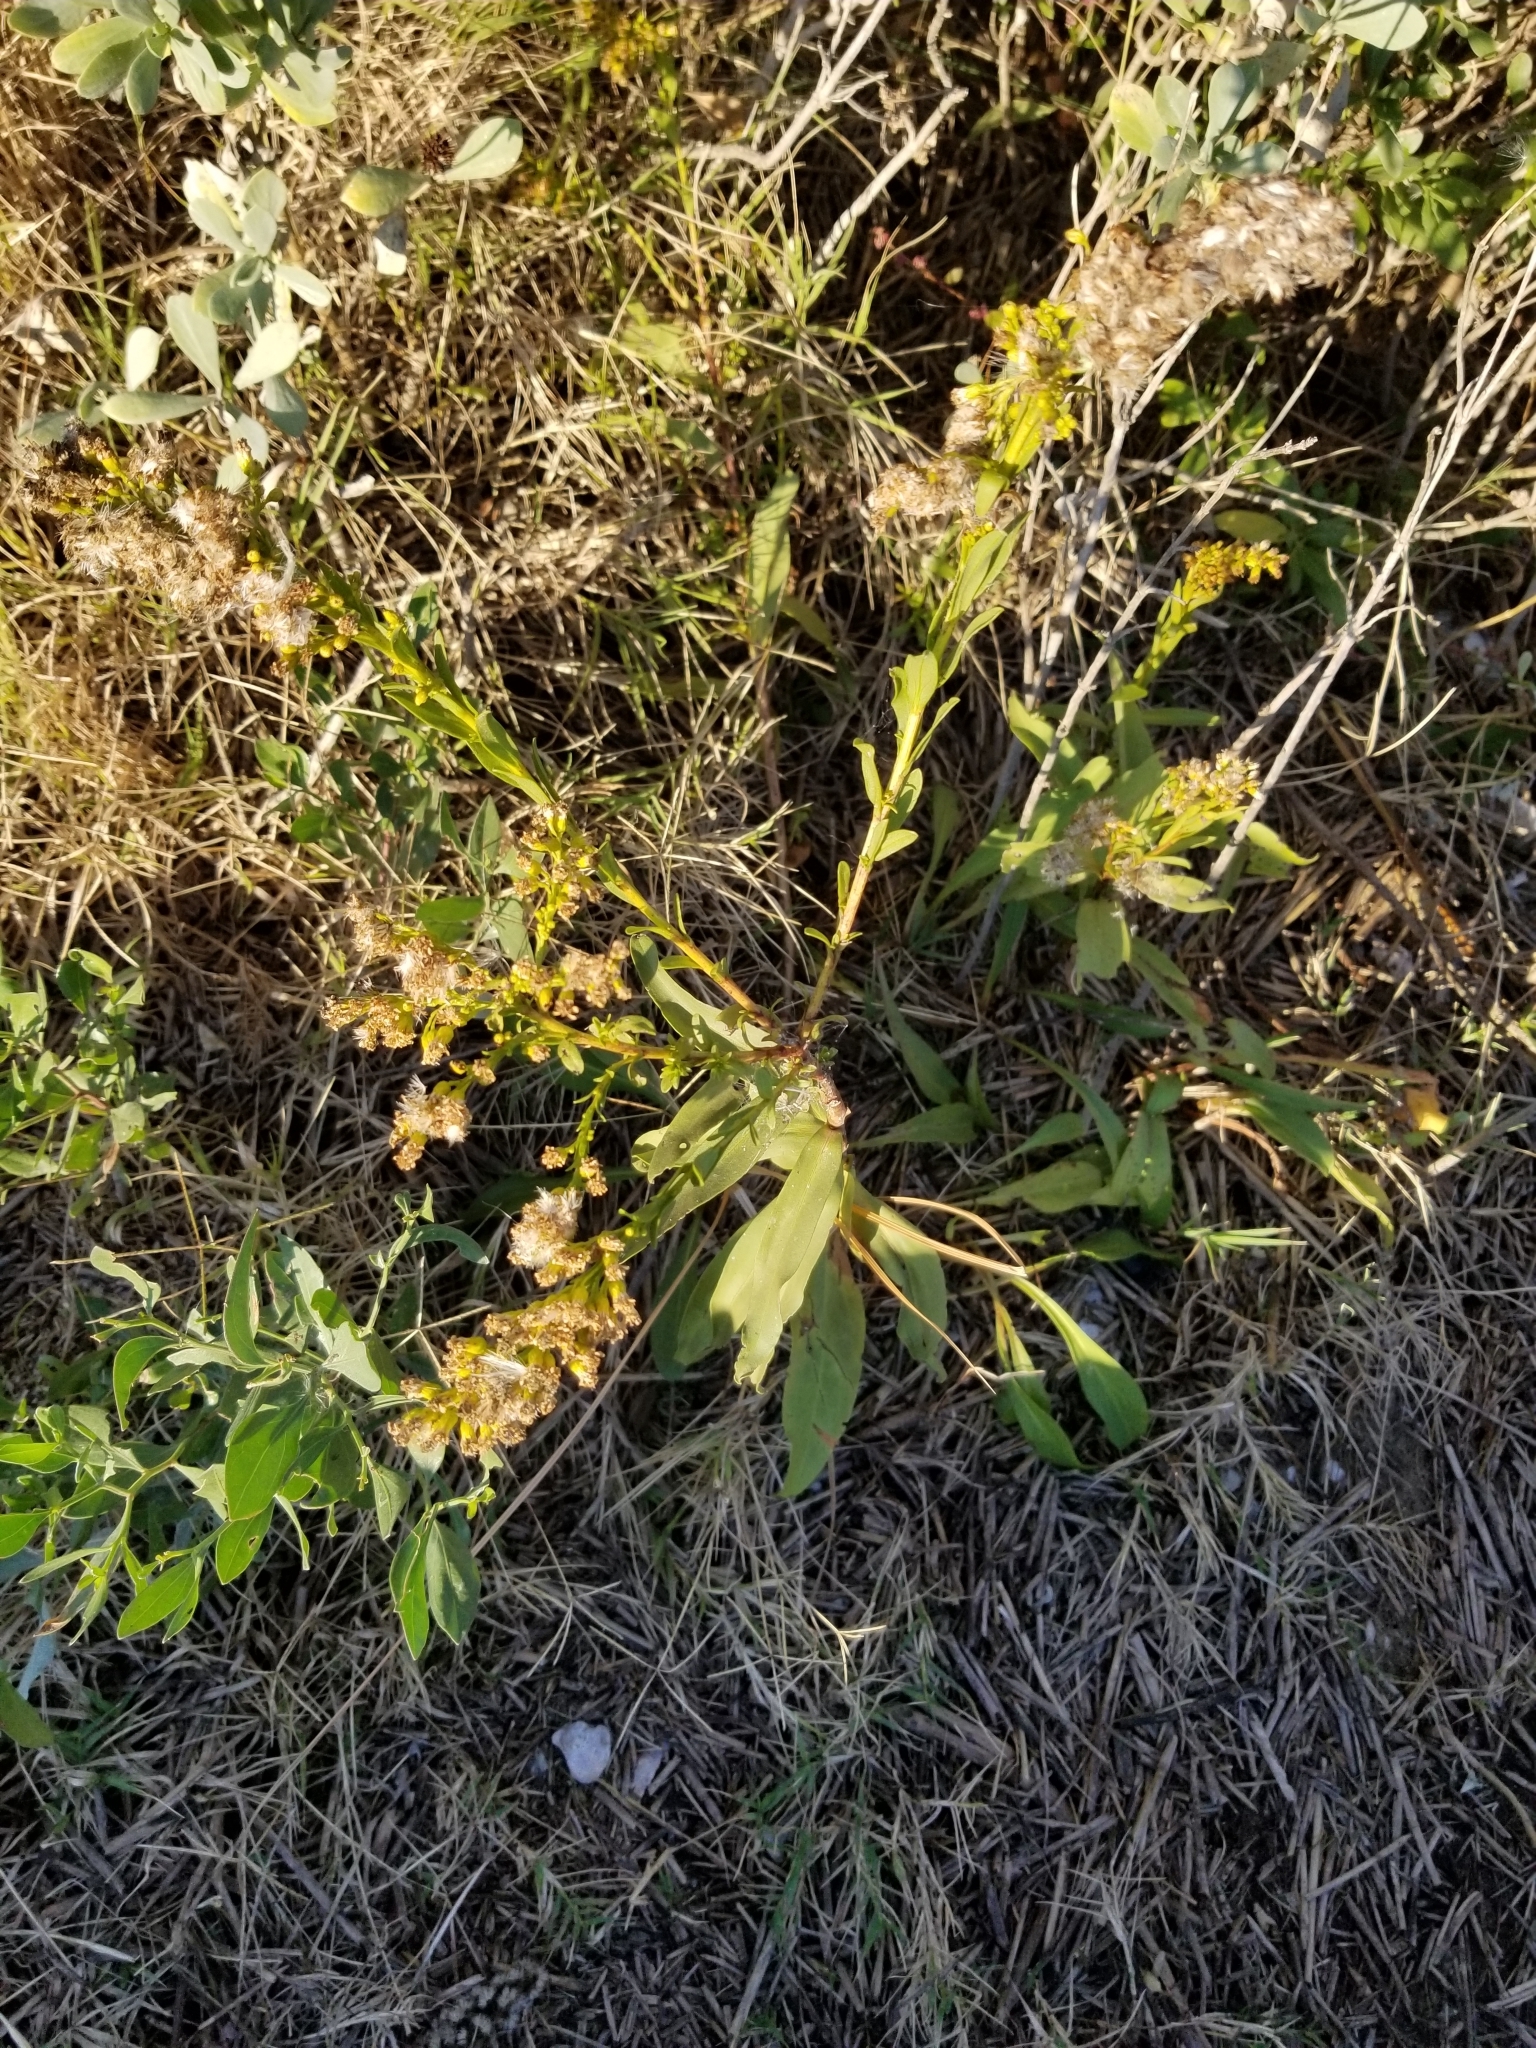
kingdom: Plantae
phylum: Tracheophyta
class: Magnoliopsida
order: Asterales
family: Asteraceae
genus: Solidago
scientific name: Solidago sempervirens
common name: Salt-marsh goldenrod
